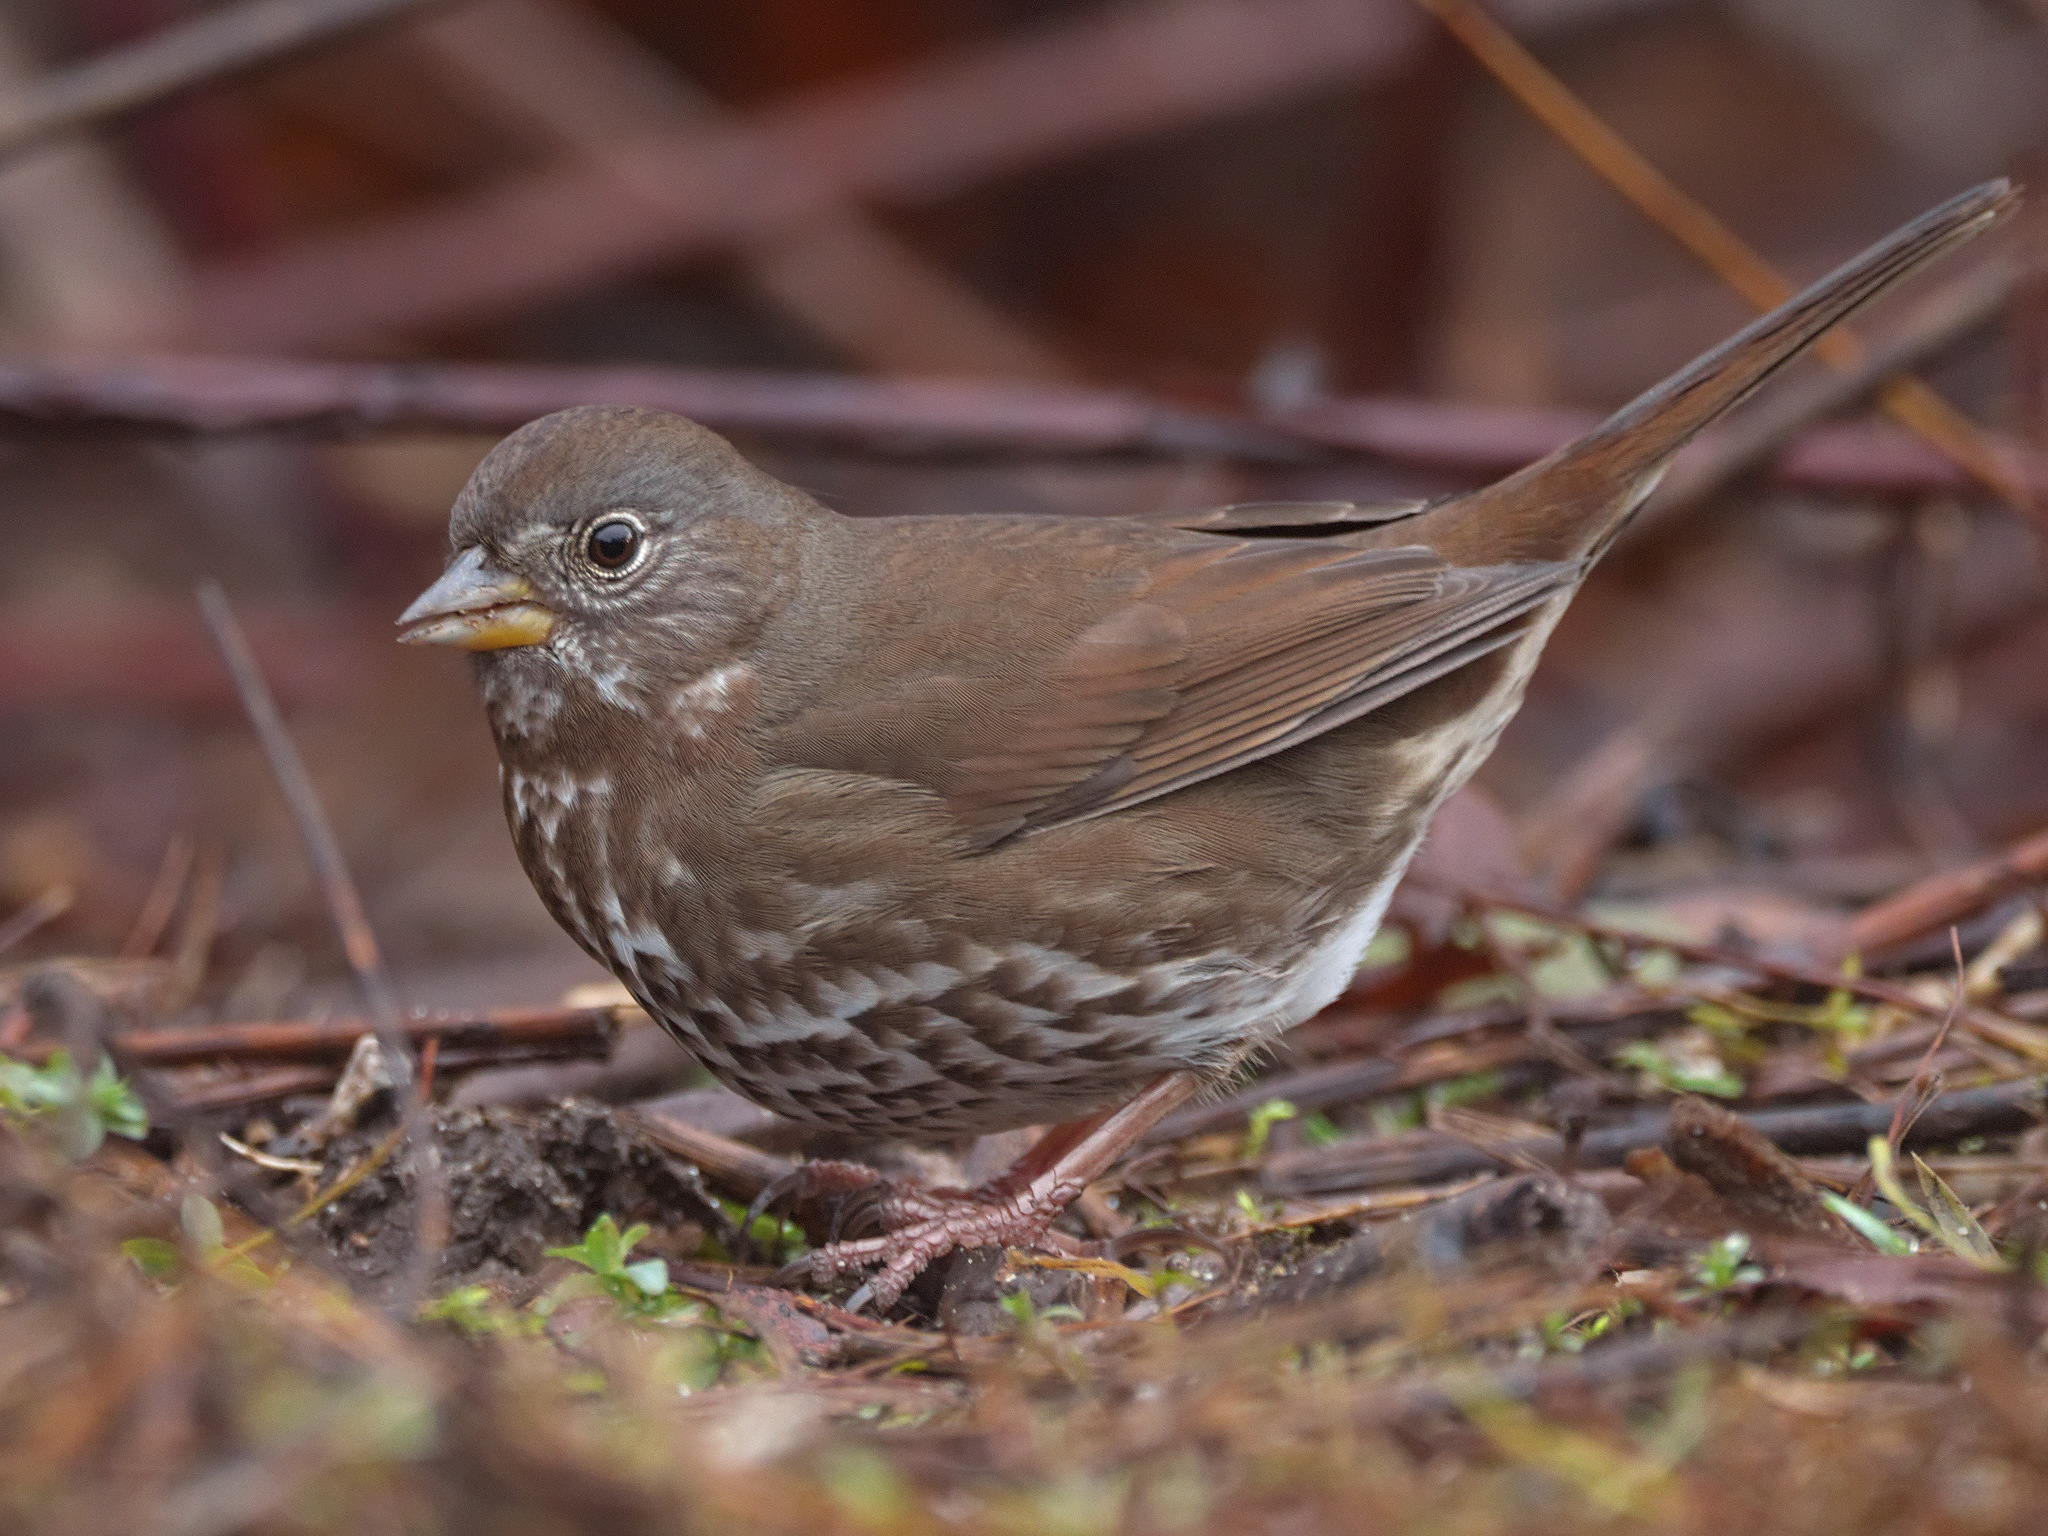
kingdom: Animalia
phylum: Chordata
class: Aves
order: Passeriformes
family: Passerellidae
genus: Passerella
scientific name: Passerella iliaca
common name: Fox sparrow
